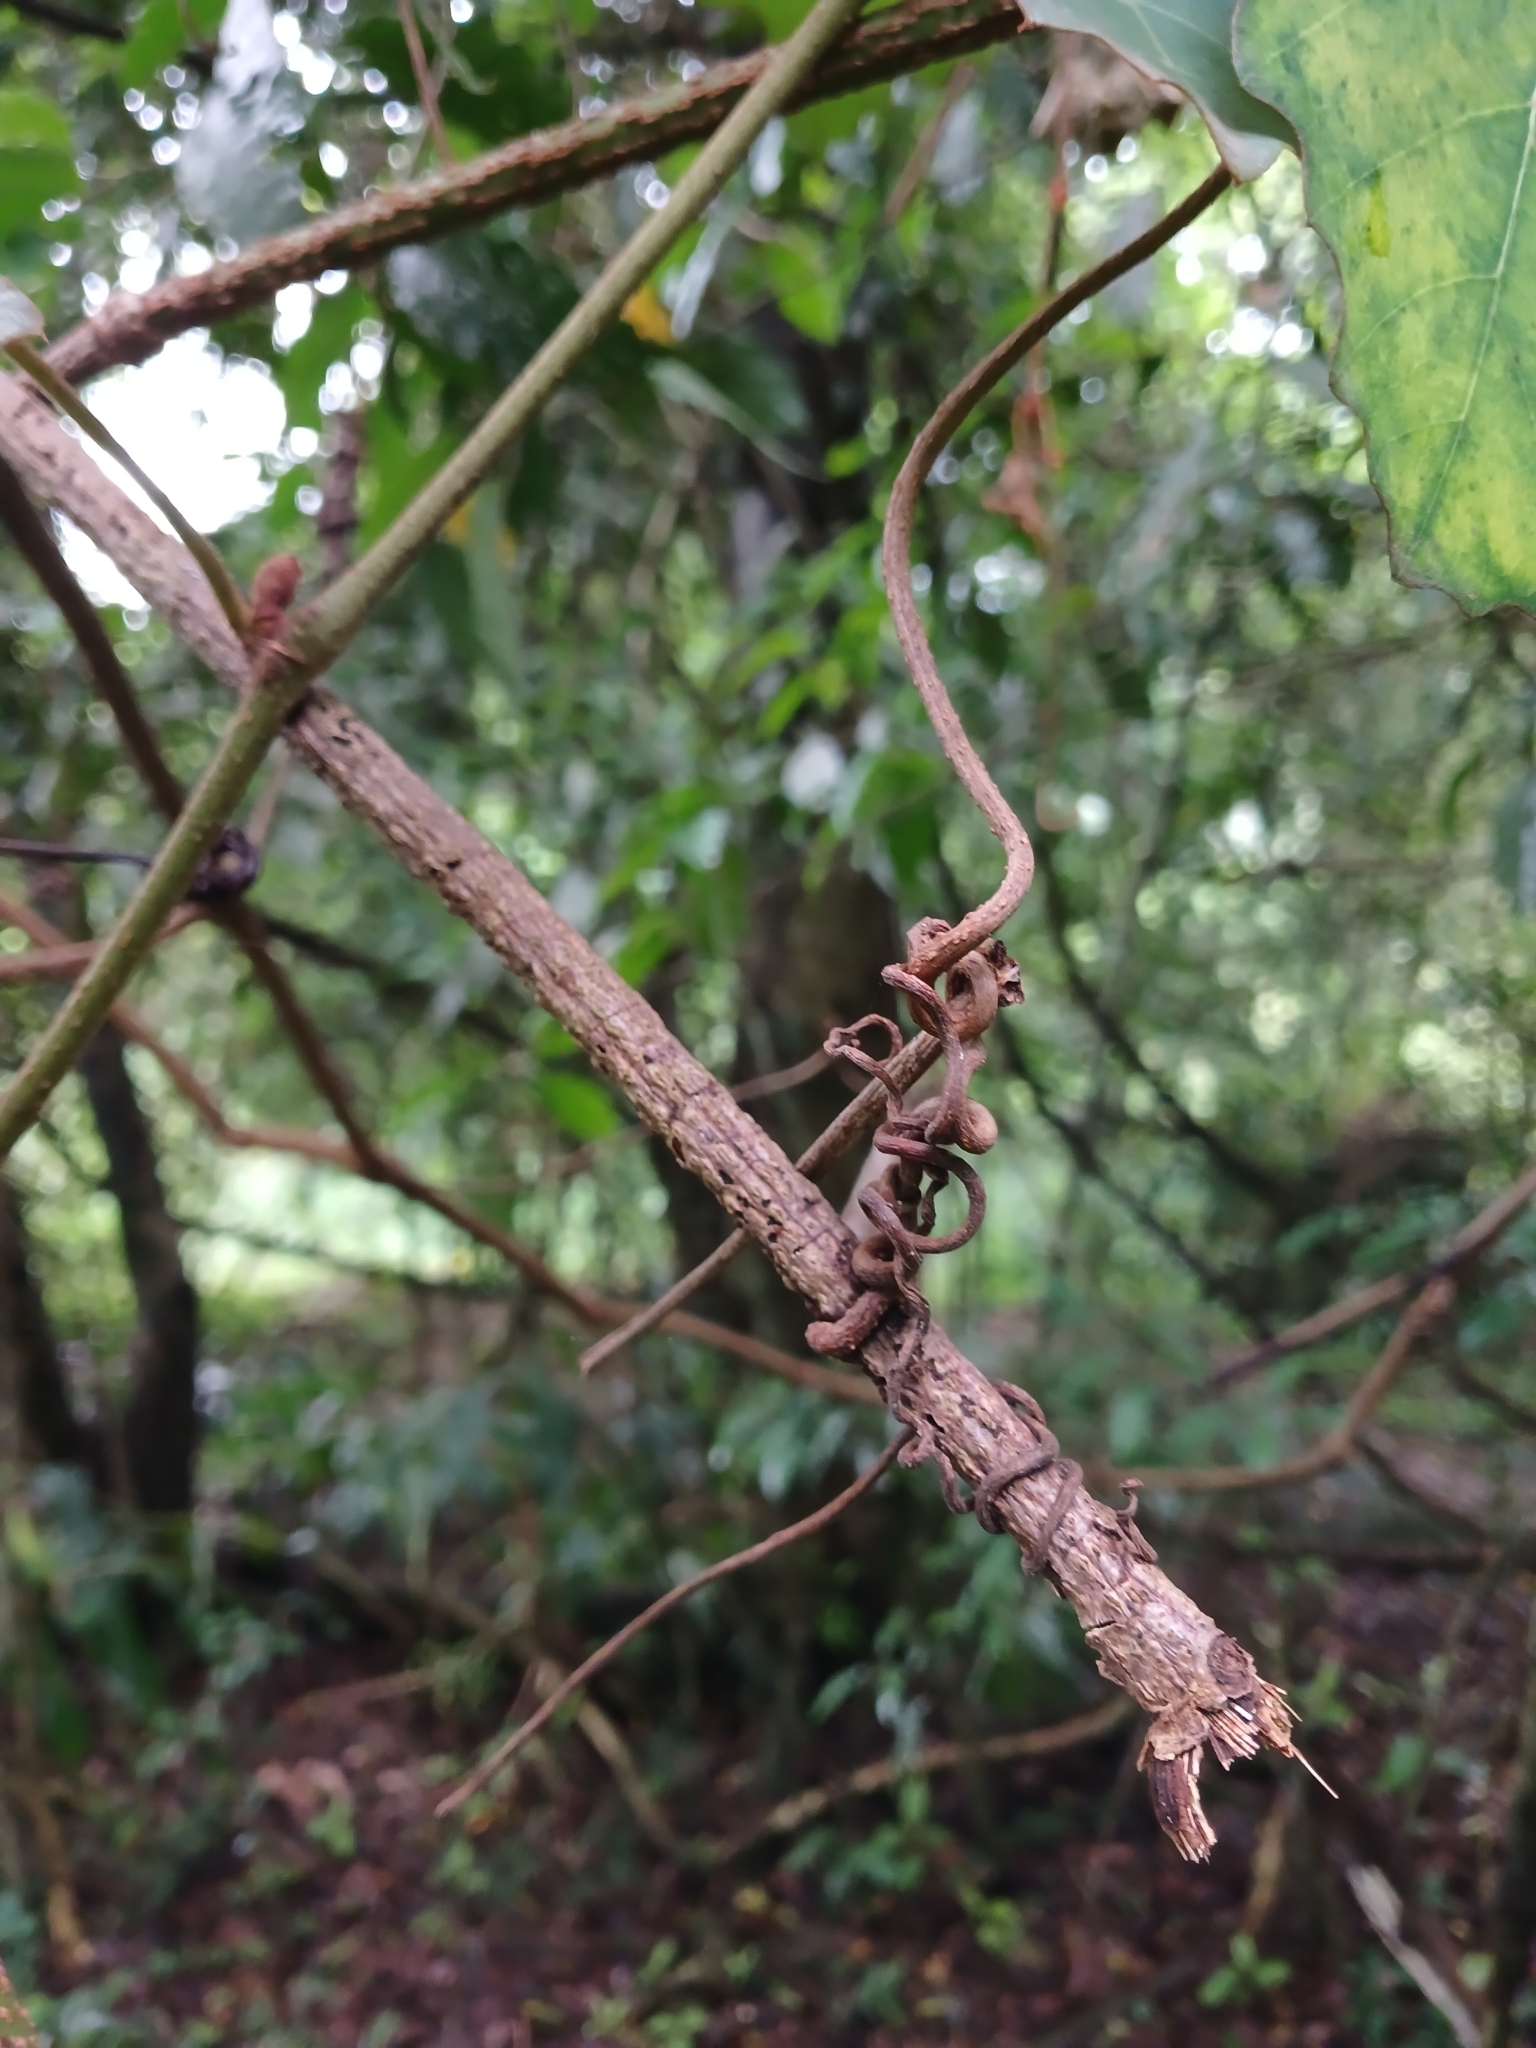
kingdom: Plantae
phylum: Tracheophyta
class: Magnoliopsida
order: Vitales
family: Vitaceae
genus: Rhoicissus
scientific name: Rhoicissus tomentosa
